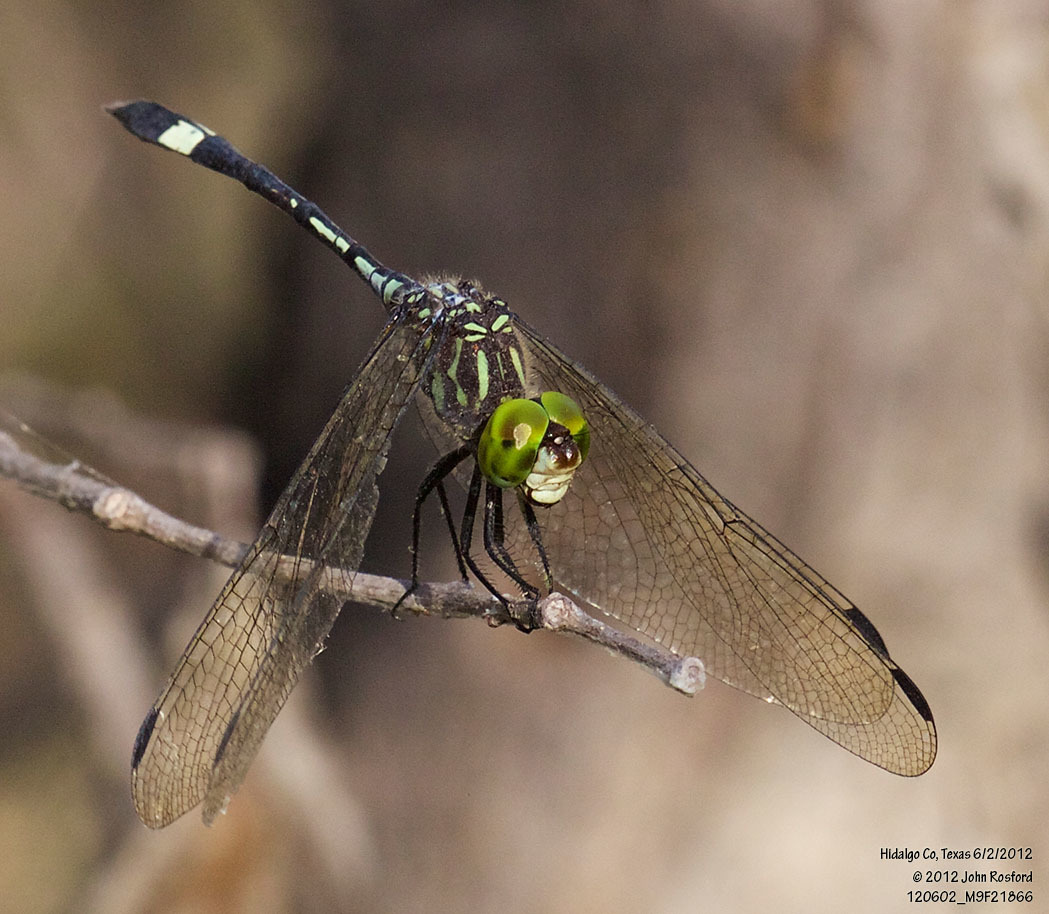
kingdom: Animalia
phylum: Arthropoda
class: Insecta
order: Odonata
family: Libellulidae
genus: Micrathyria
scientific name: Micrathyria dissocians
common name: Caribbean dasher
